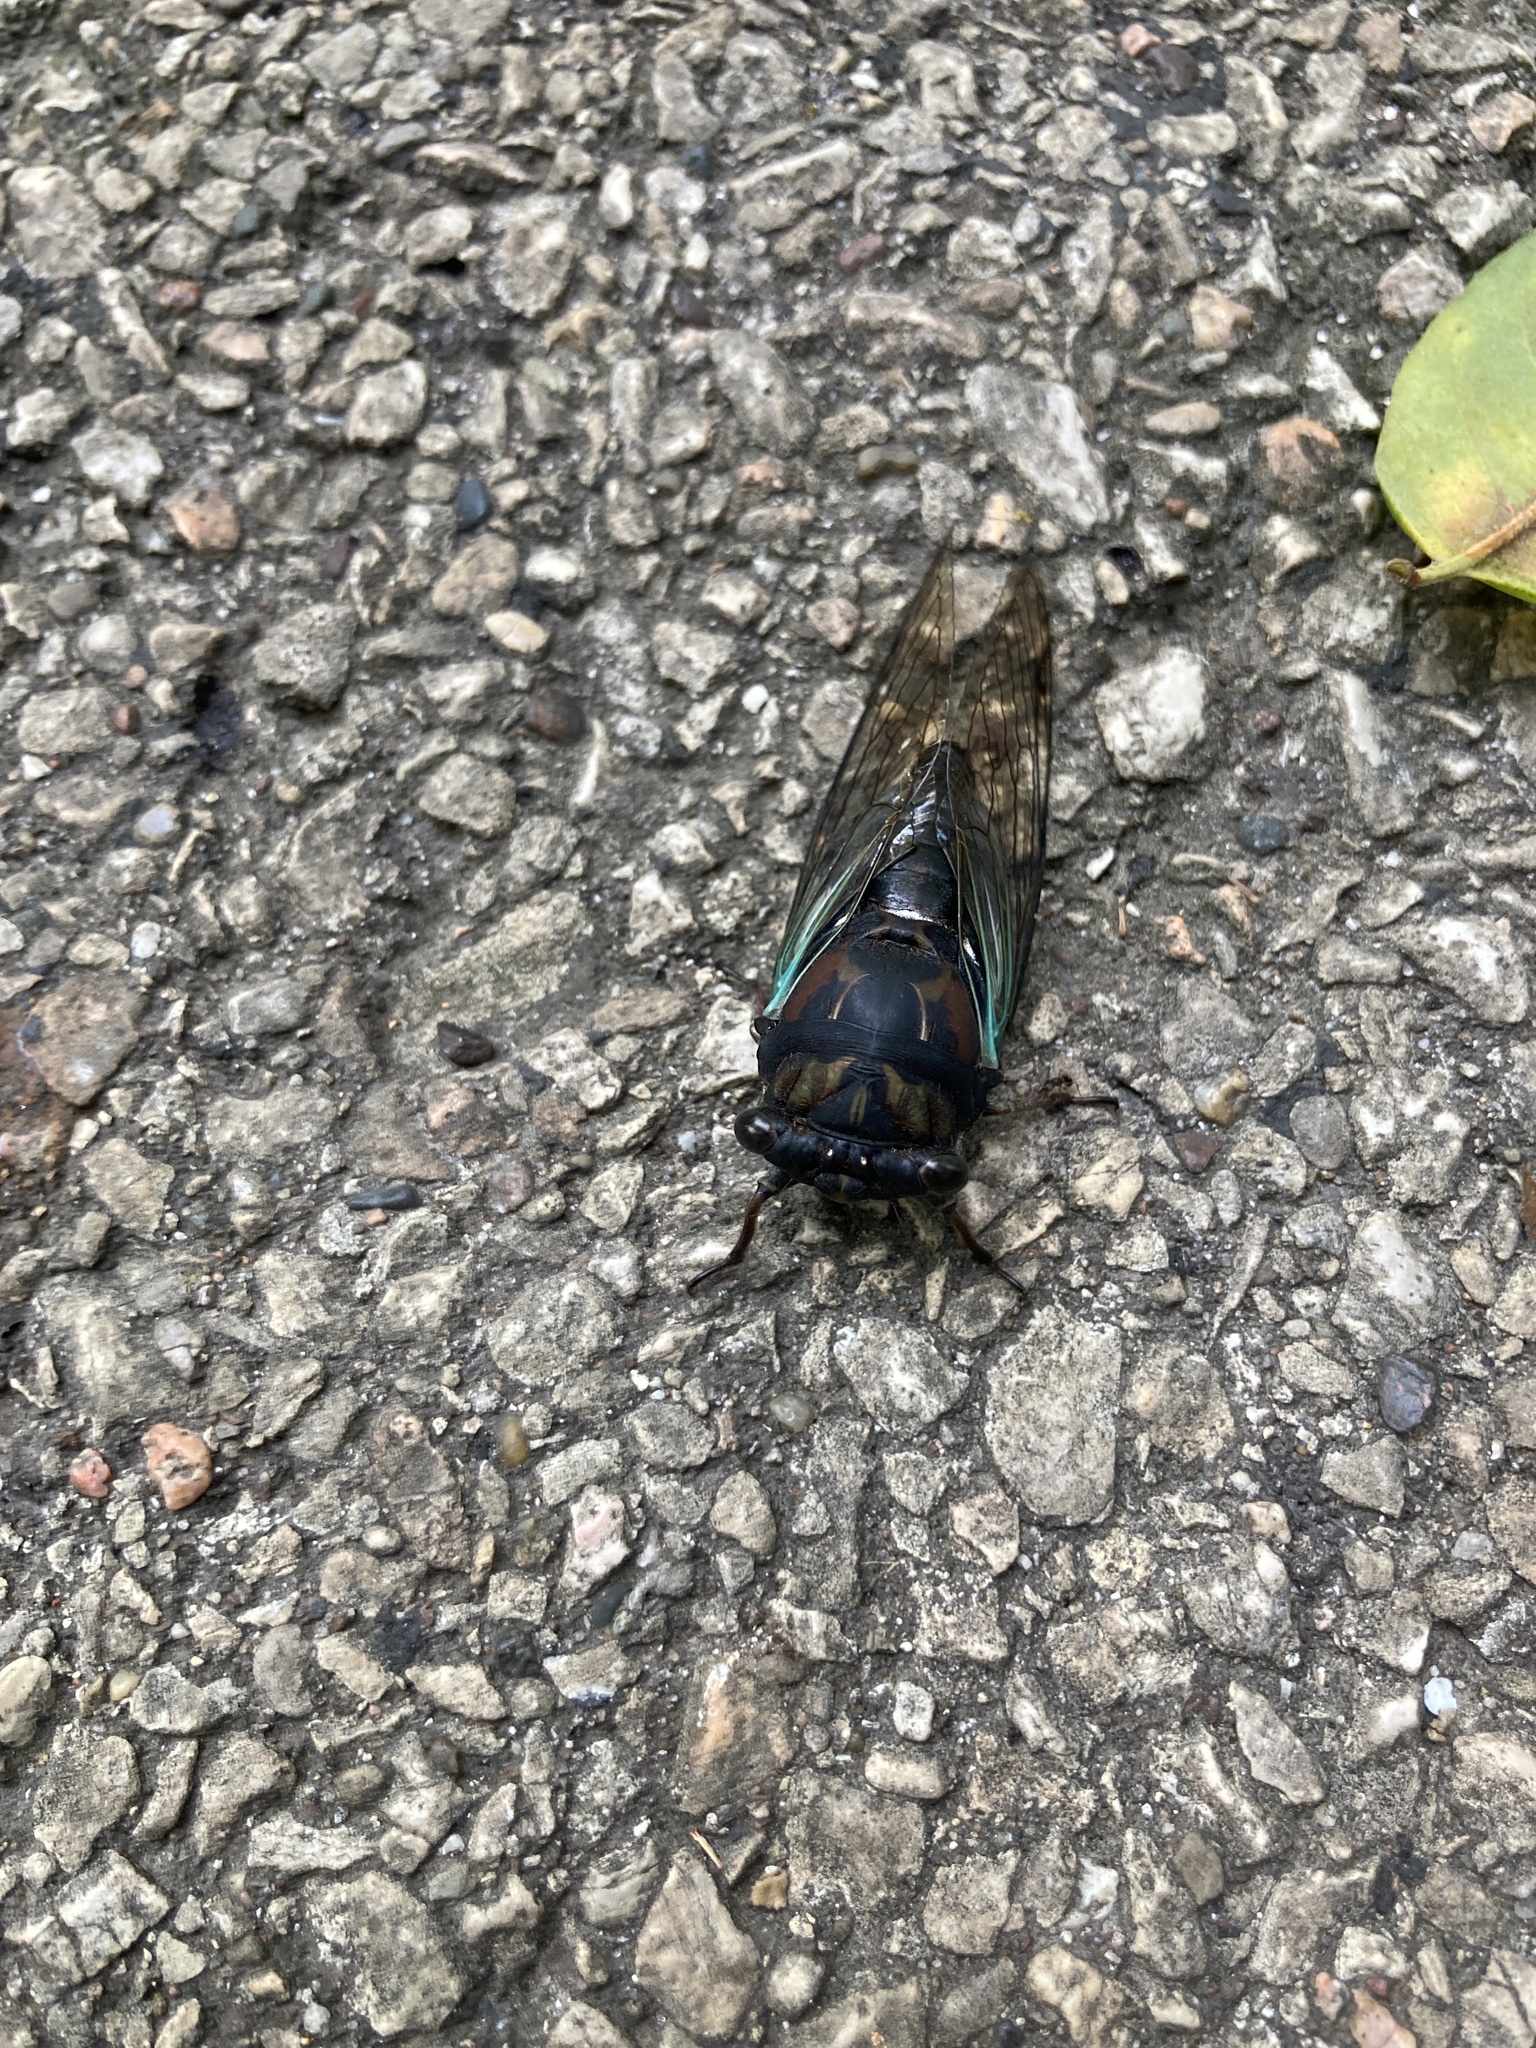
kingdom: Animalia
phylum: Arthropoda
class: Insecta
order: Hemiptera
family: Cicadidae
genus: Neotibicen
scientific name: Neotibicen lyricen
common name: Lyric cicada
